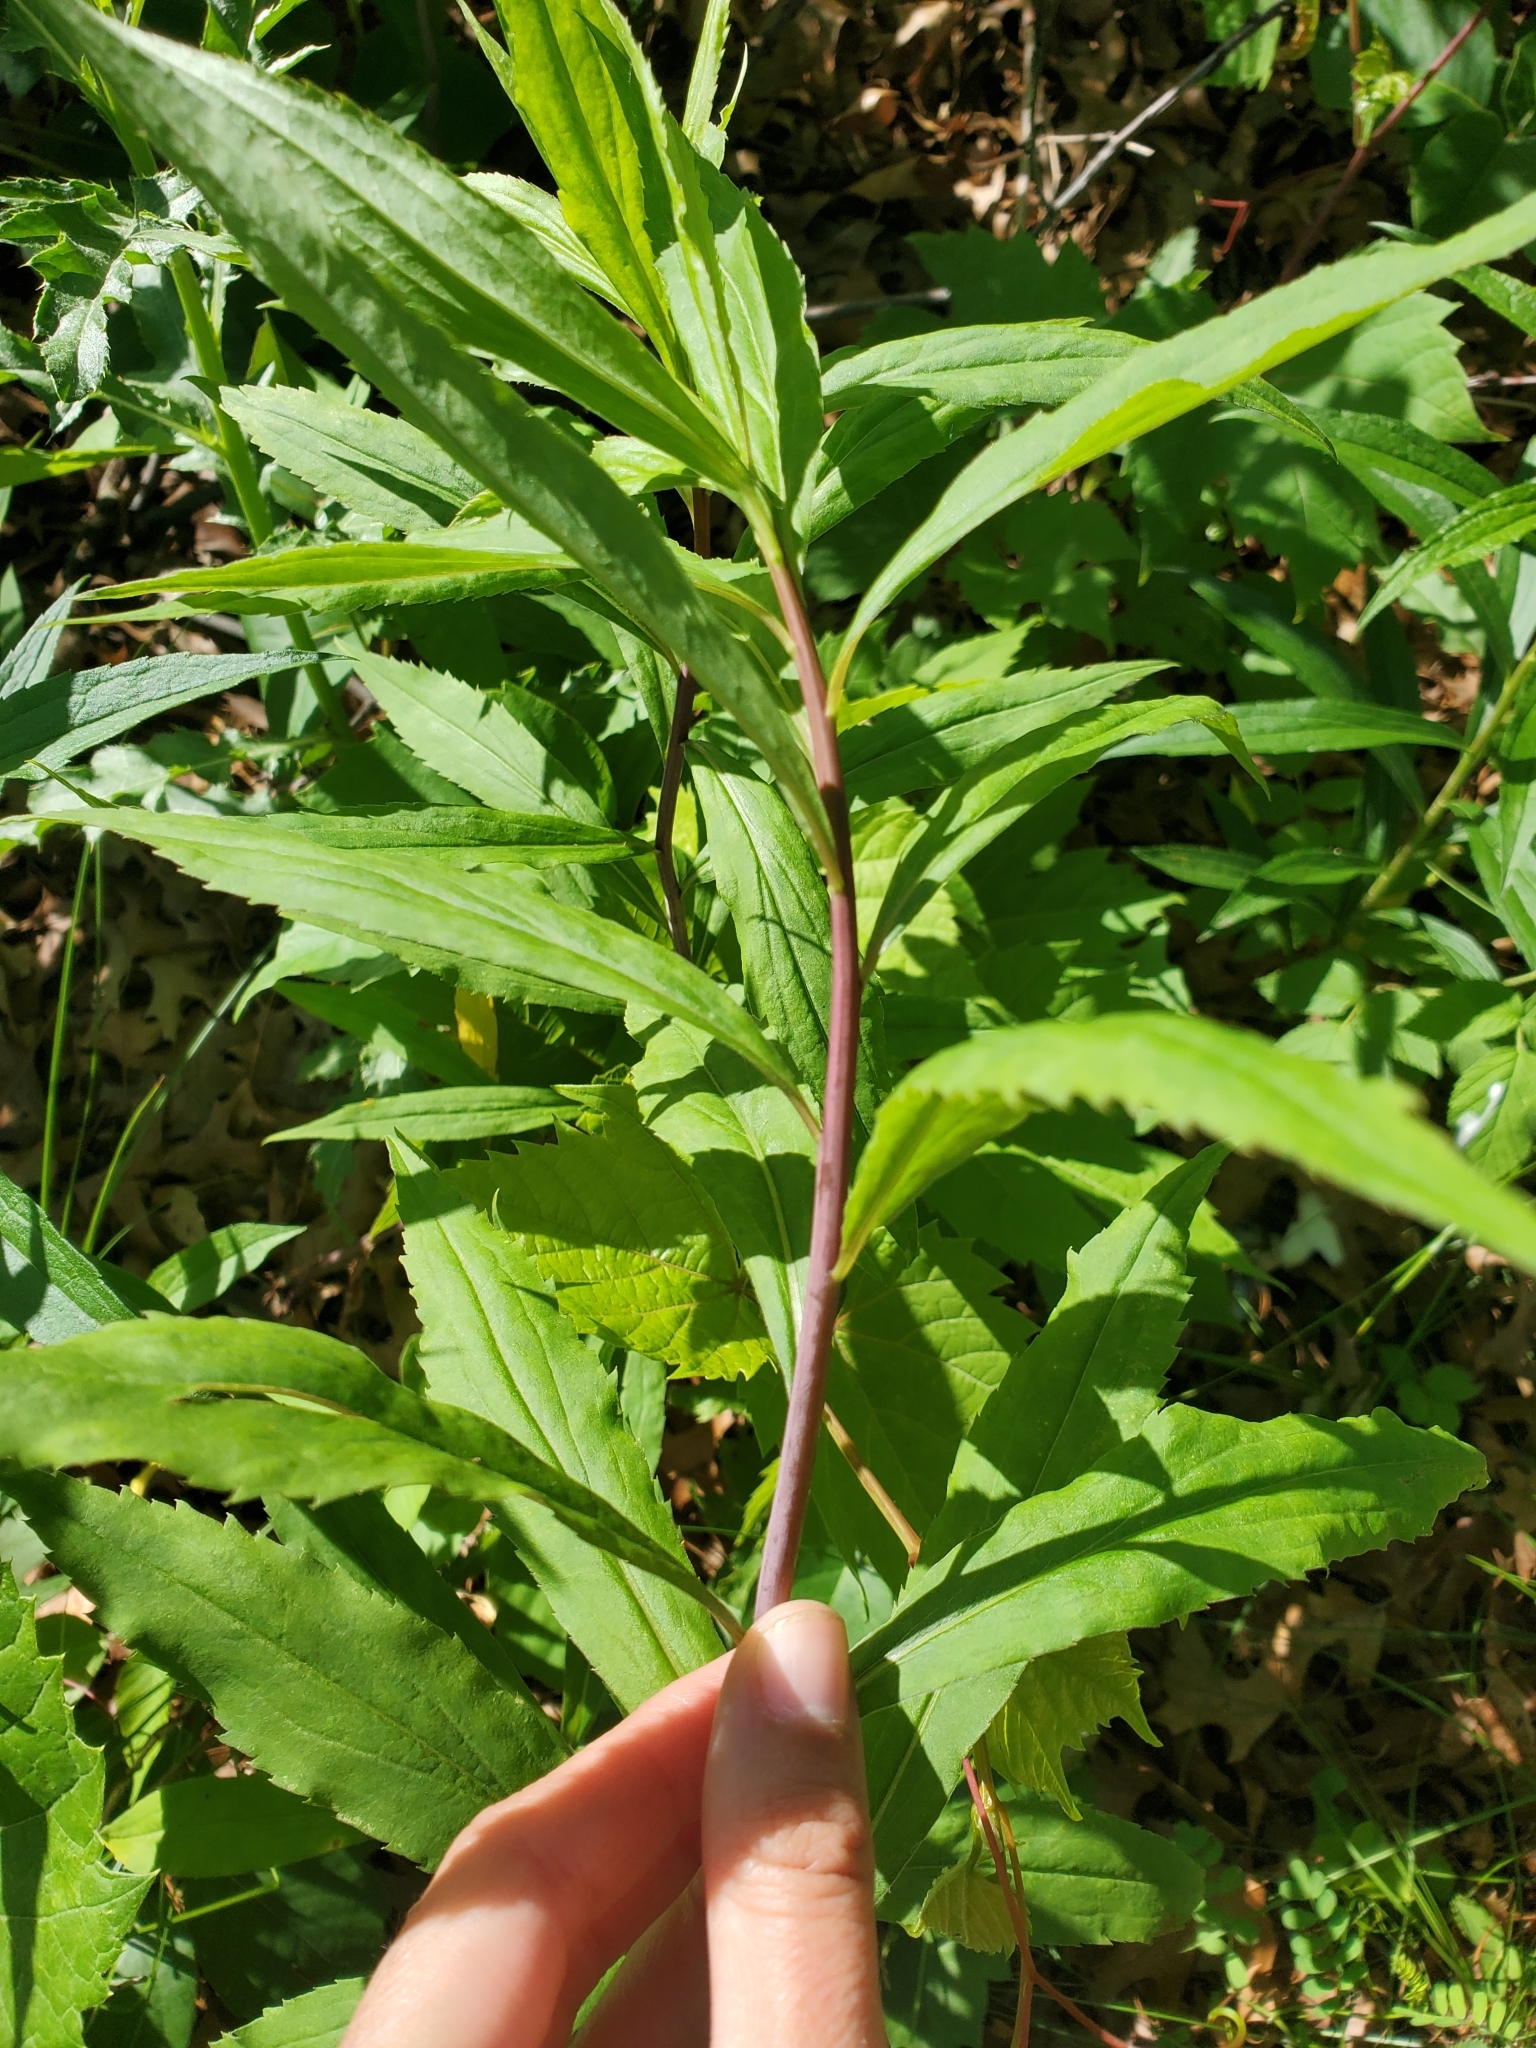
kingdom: Plantae
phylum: Tracheophyta
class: Magnoliopsida
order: Asterales
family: Asteraceae
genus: Solidago
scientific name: Solidago gigantea
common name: Giant goldenrod
